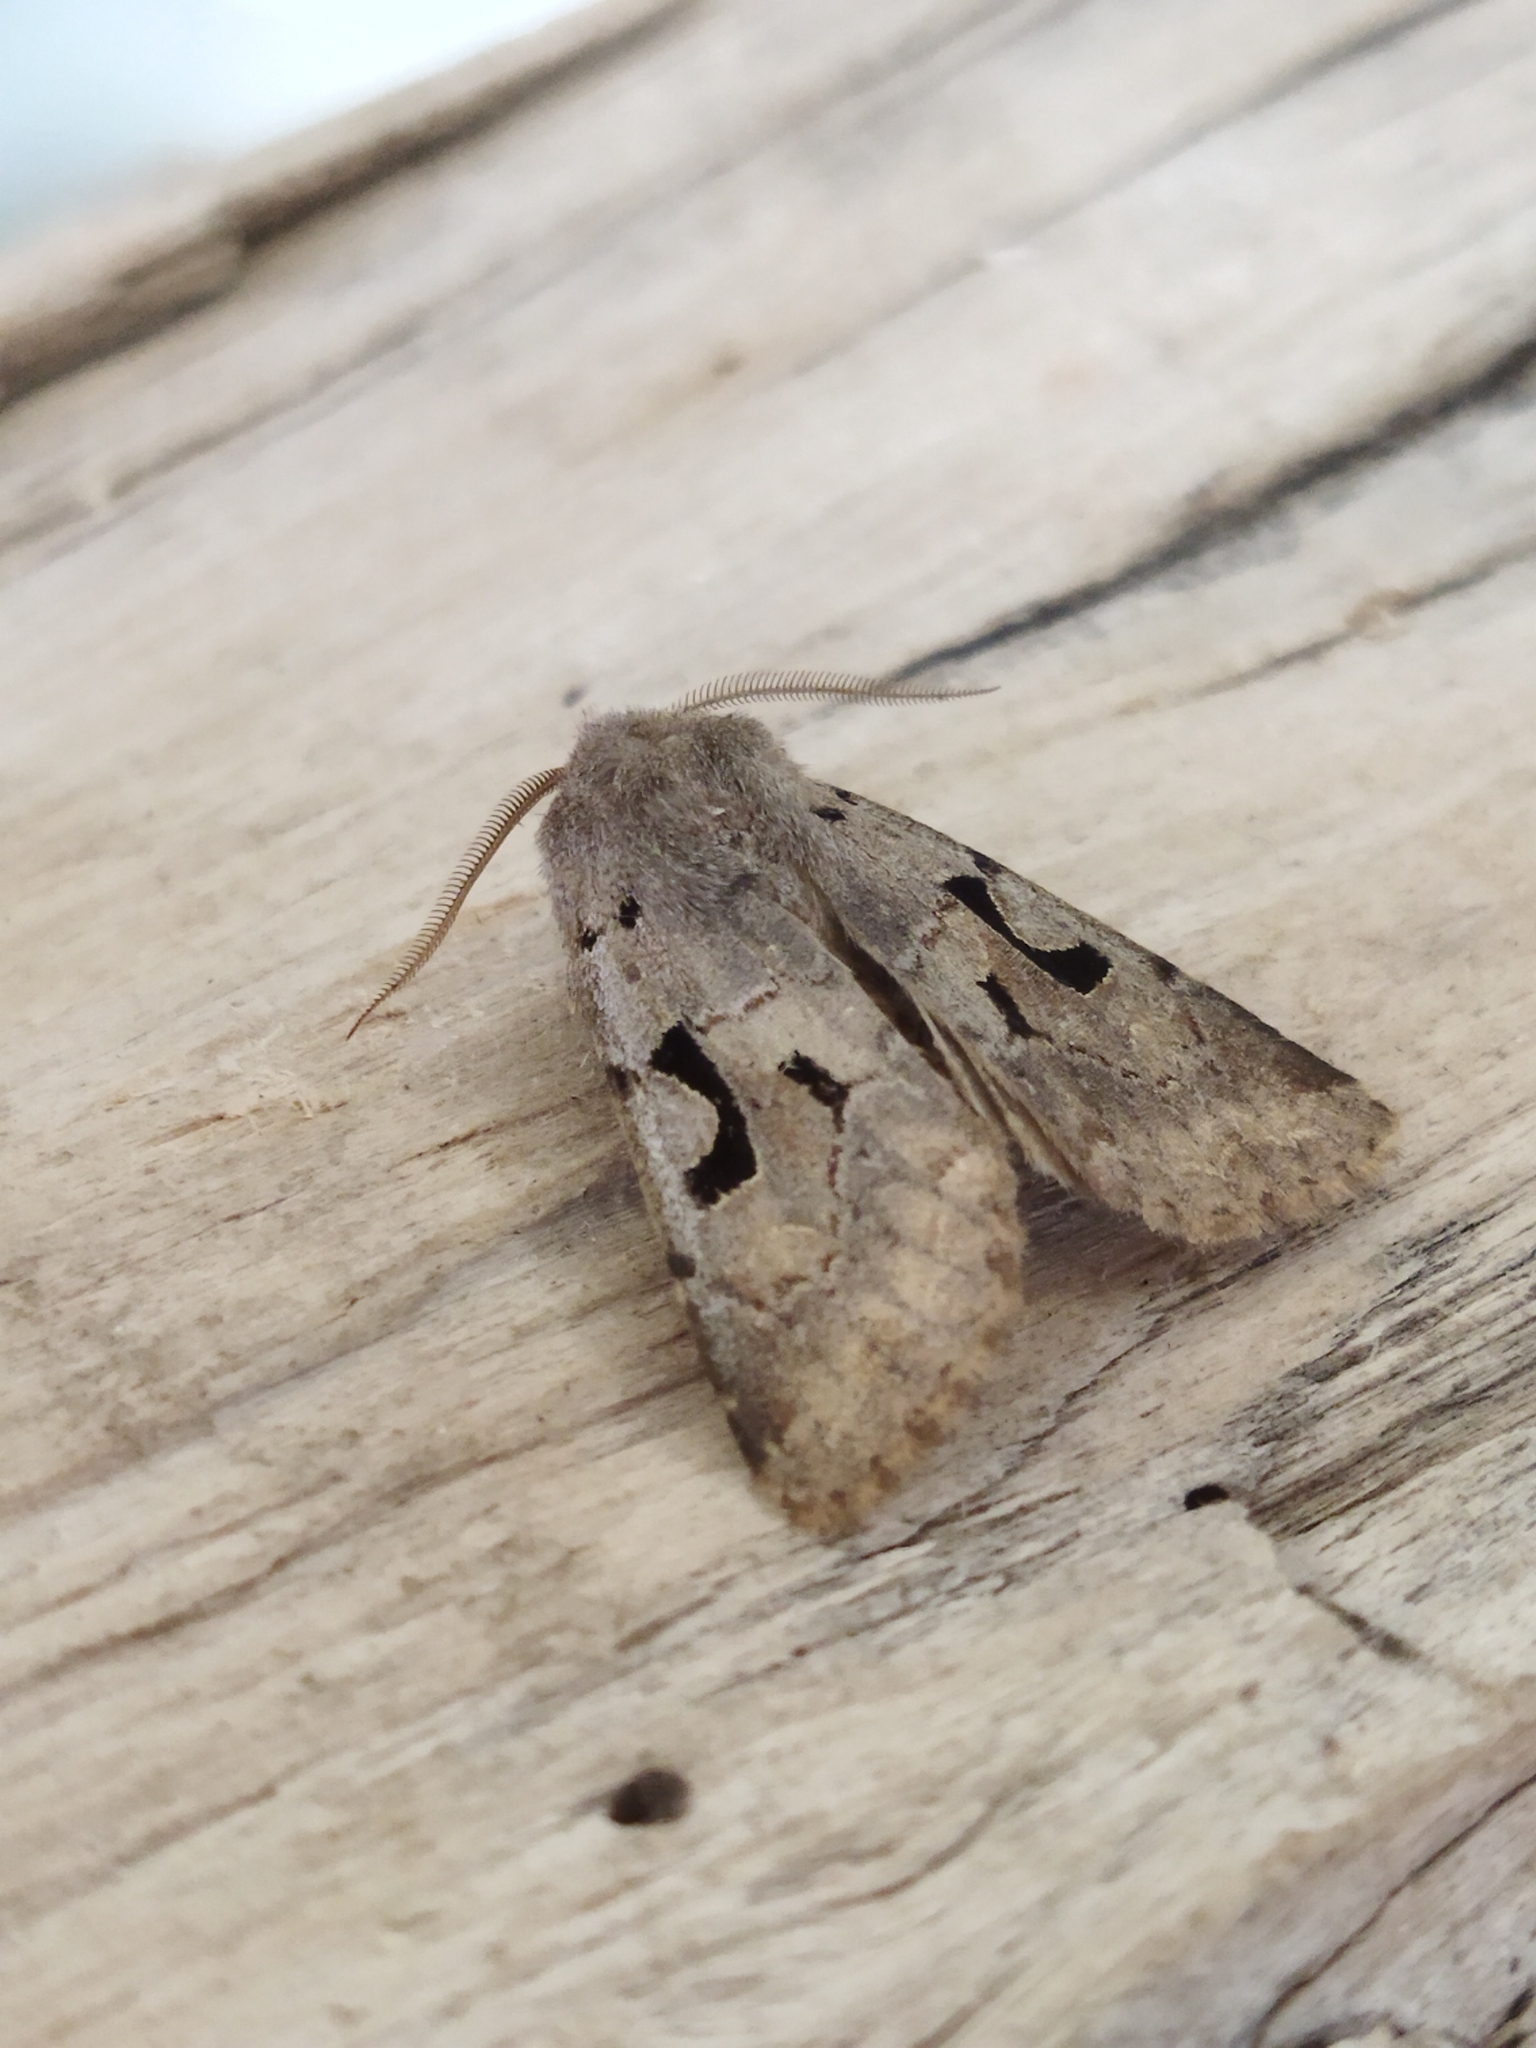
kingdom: Animalia
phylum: Arthropoda
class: Insecta
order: Lepidoptera
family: Noctuidae
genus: Orthosia
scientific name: Orthosia gothica
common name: Hebrew character
